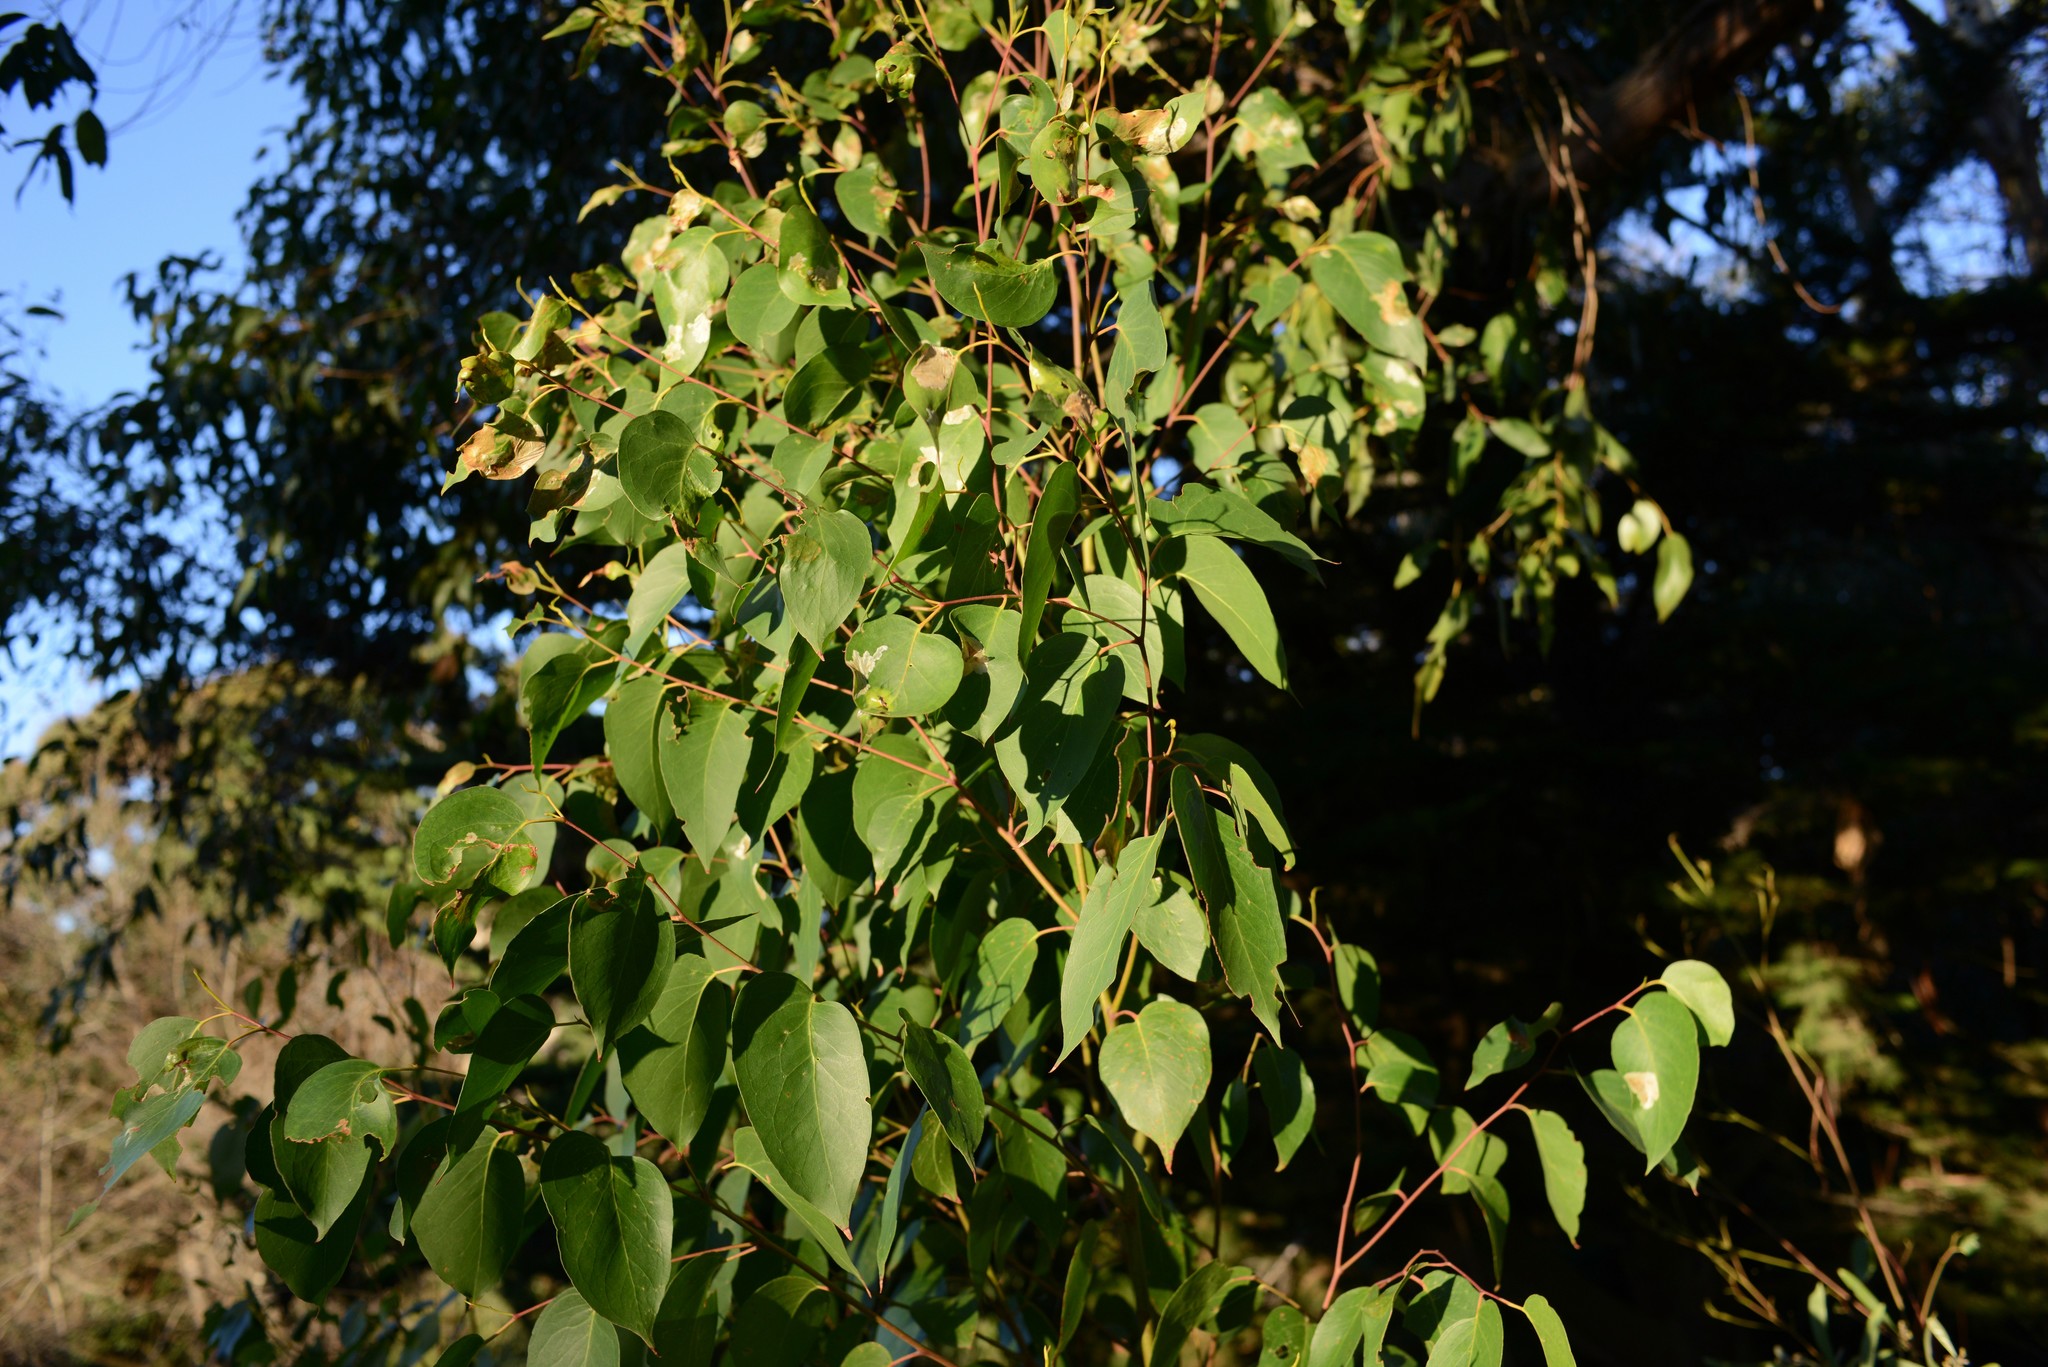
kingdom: Plantae
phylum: Tracheophyta
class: Magnoliopsida
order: Myrtales
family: Myrtaceae
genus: Eucalyptus
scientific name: Eucalyptus obliqua
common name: Messmate stringybark
